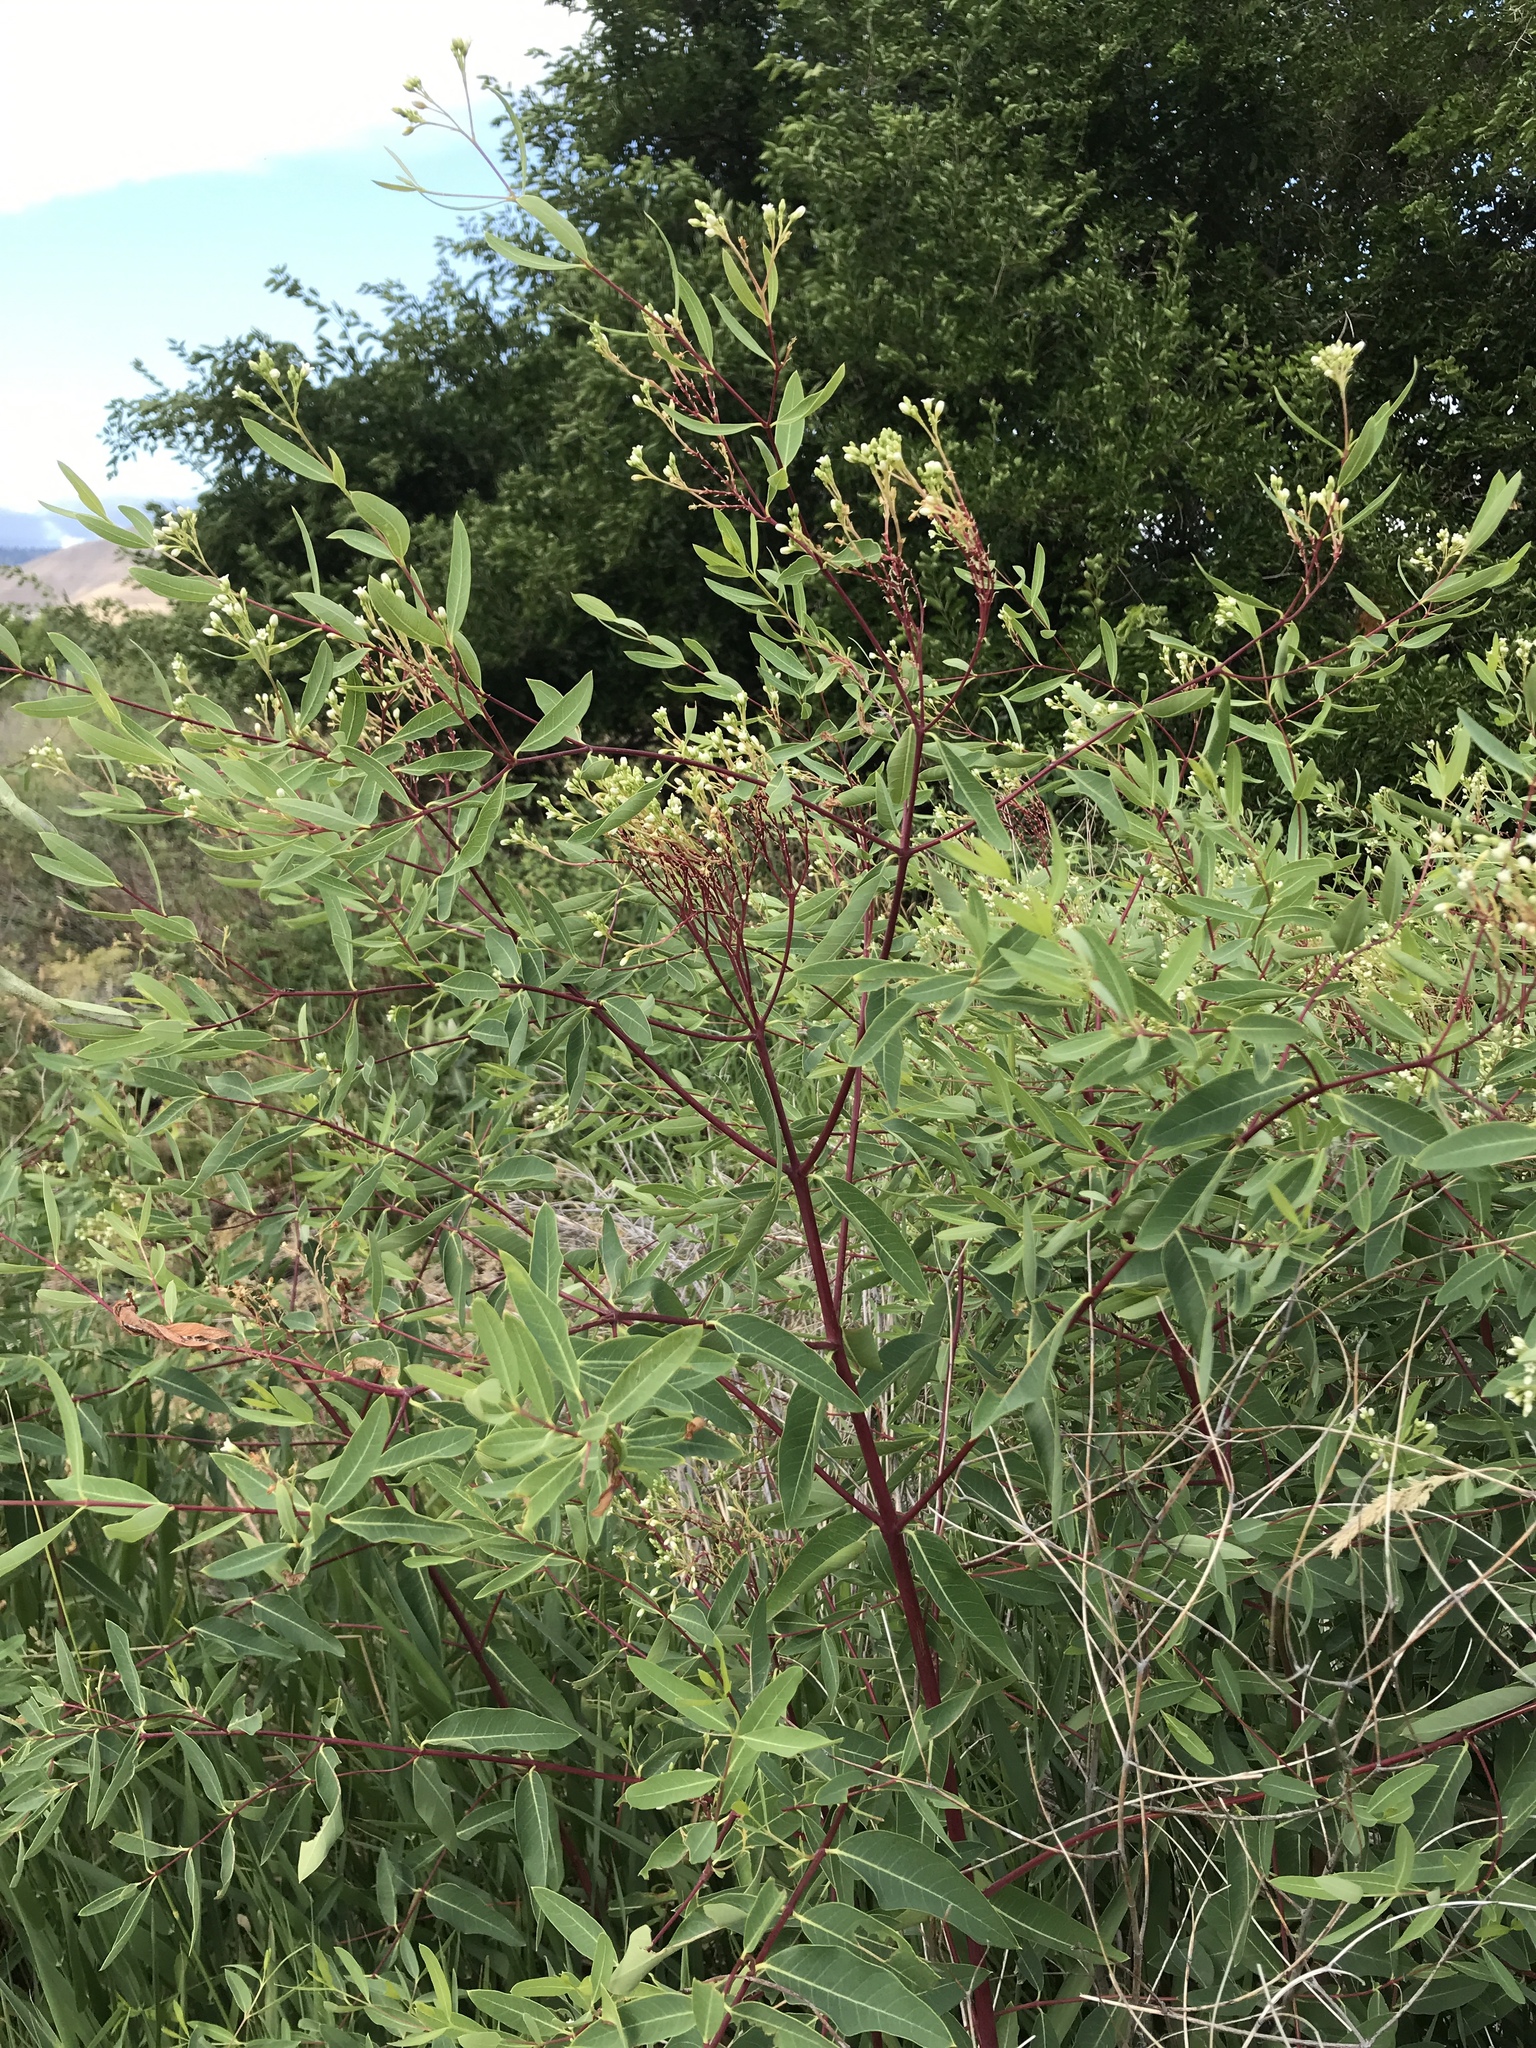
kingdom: Plantae
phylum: Tracheophyta
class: Magnoliopsida
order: Gentianales
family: Apocynaceae
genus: Apocynum
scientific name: Apocynum cannabinum
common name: Hemp dogbane
